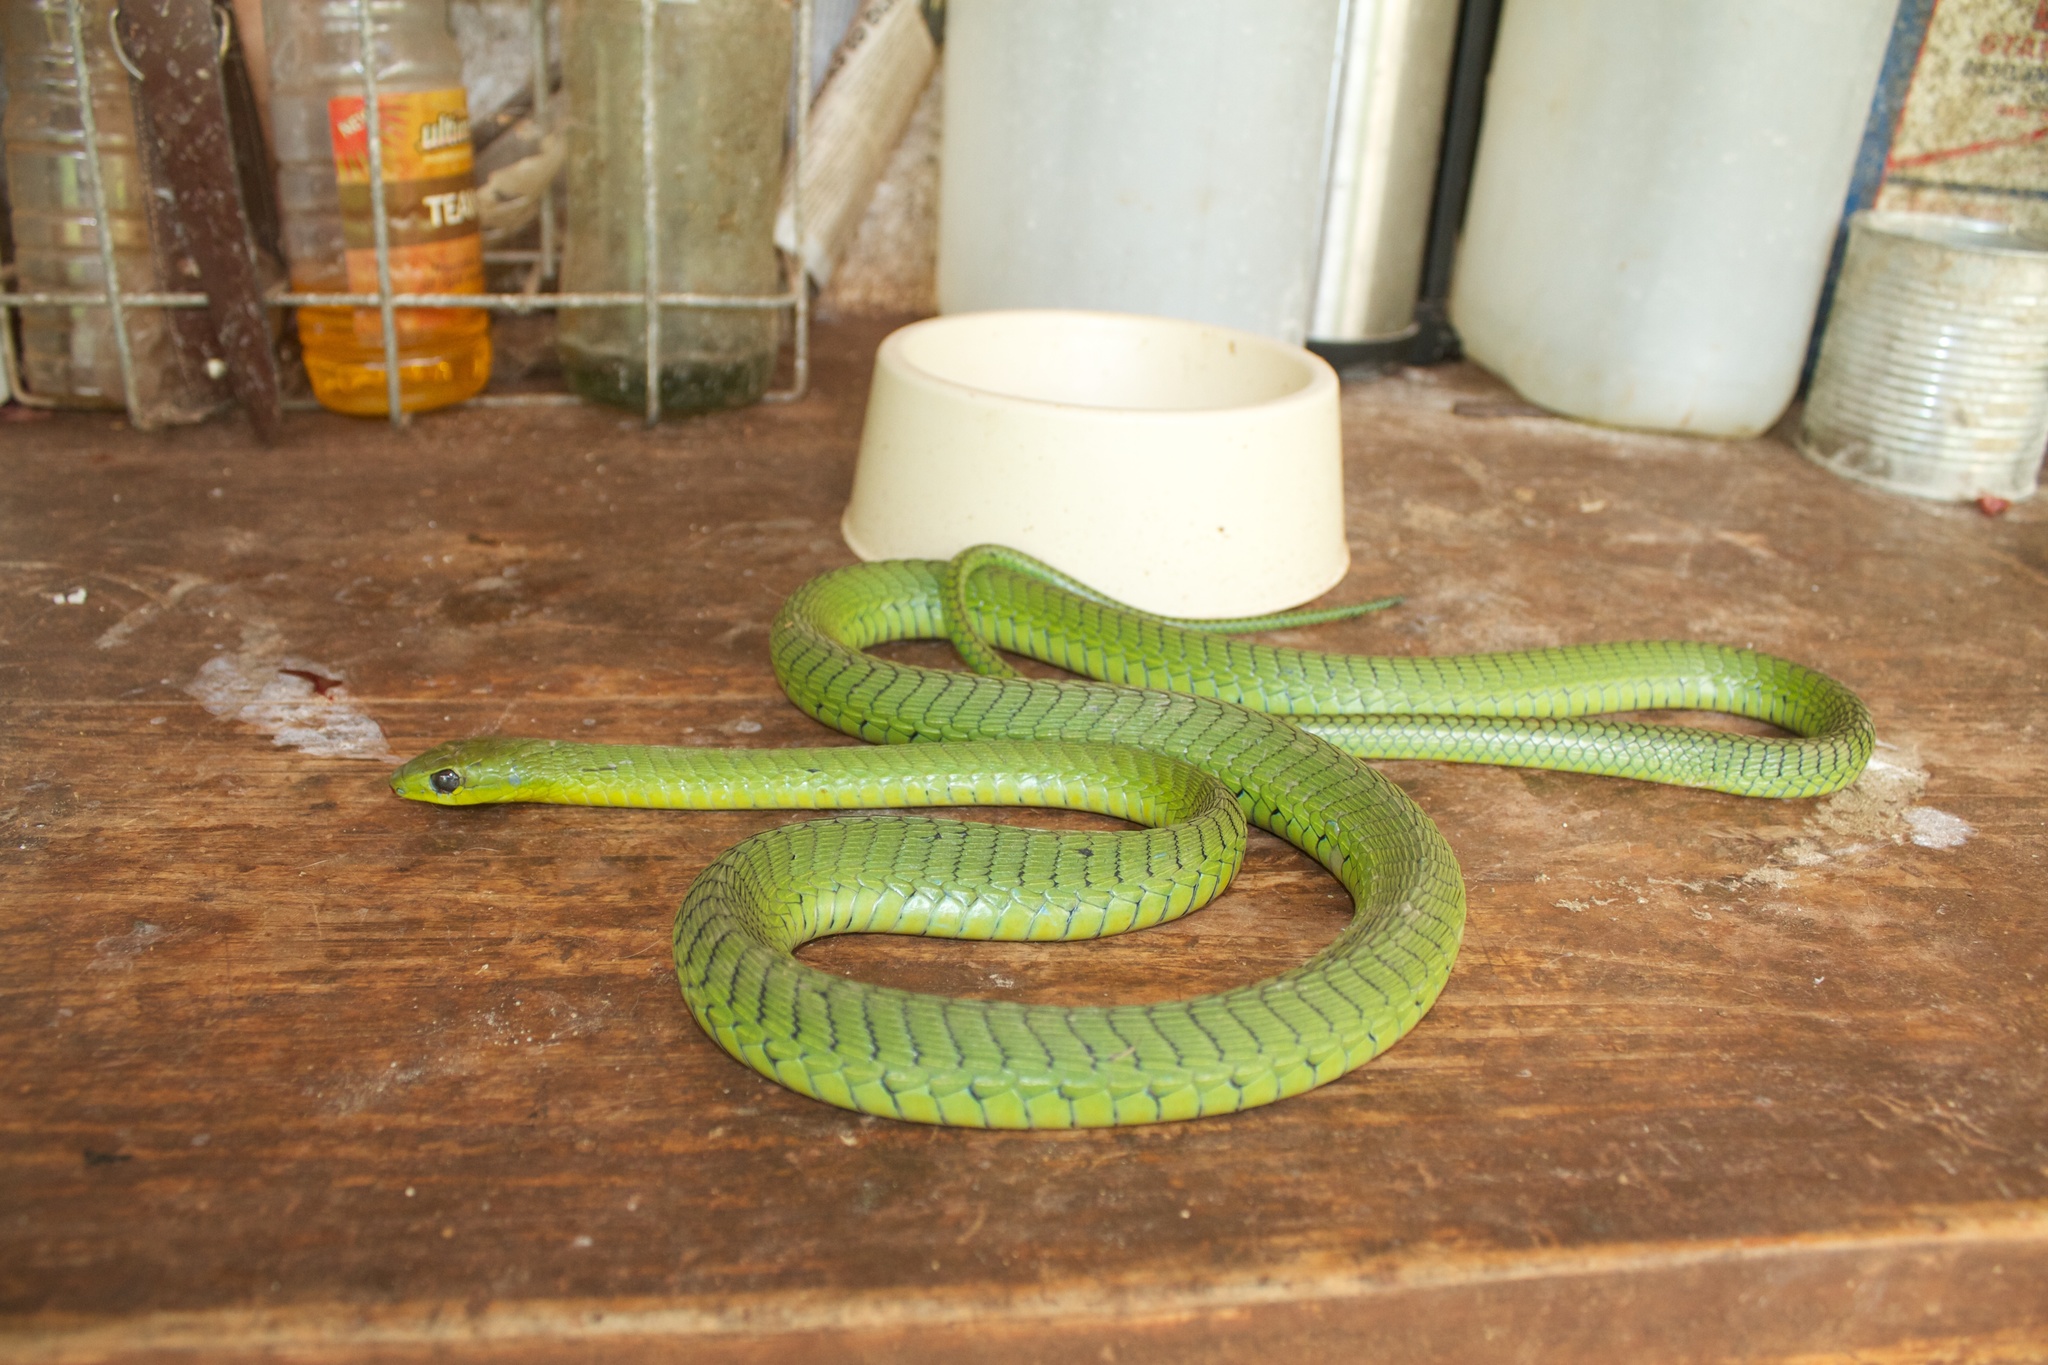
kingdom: Animalia
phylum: Chordata
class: Squamata
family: Colubridae
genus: Dispholidus
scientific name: Dispholidus typus
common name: Boomslang
